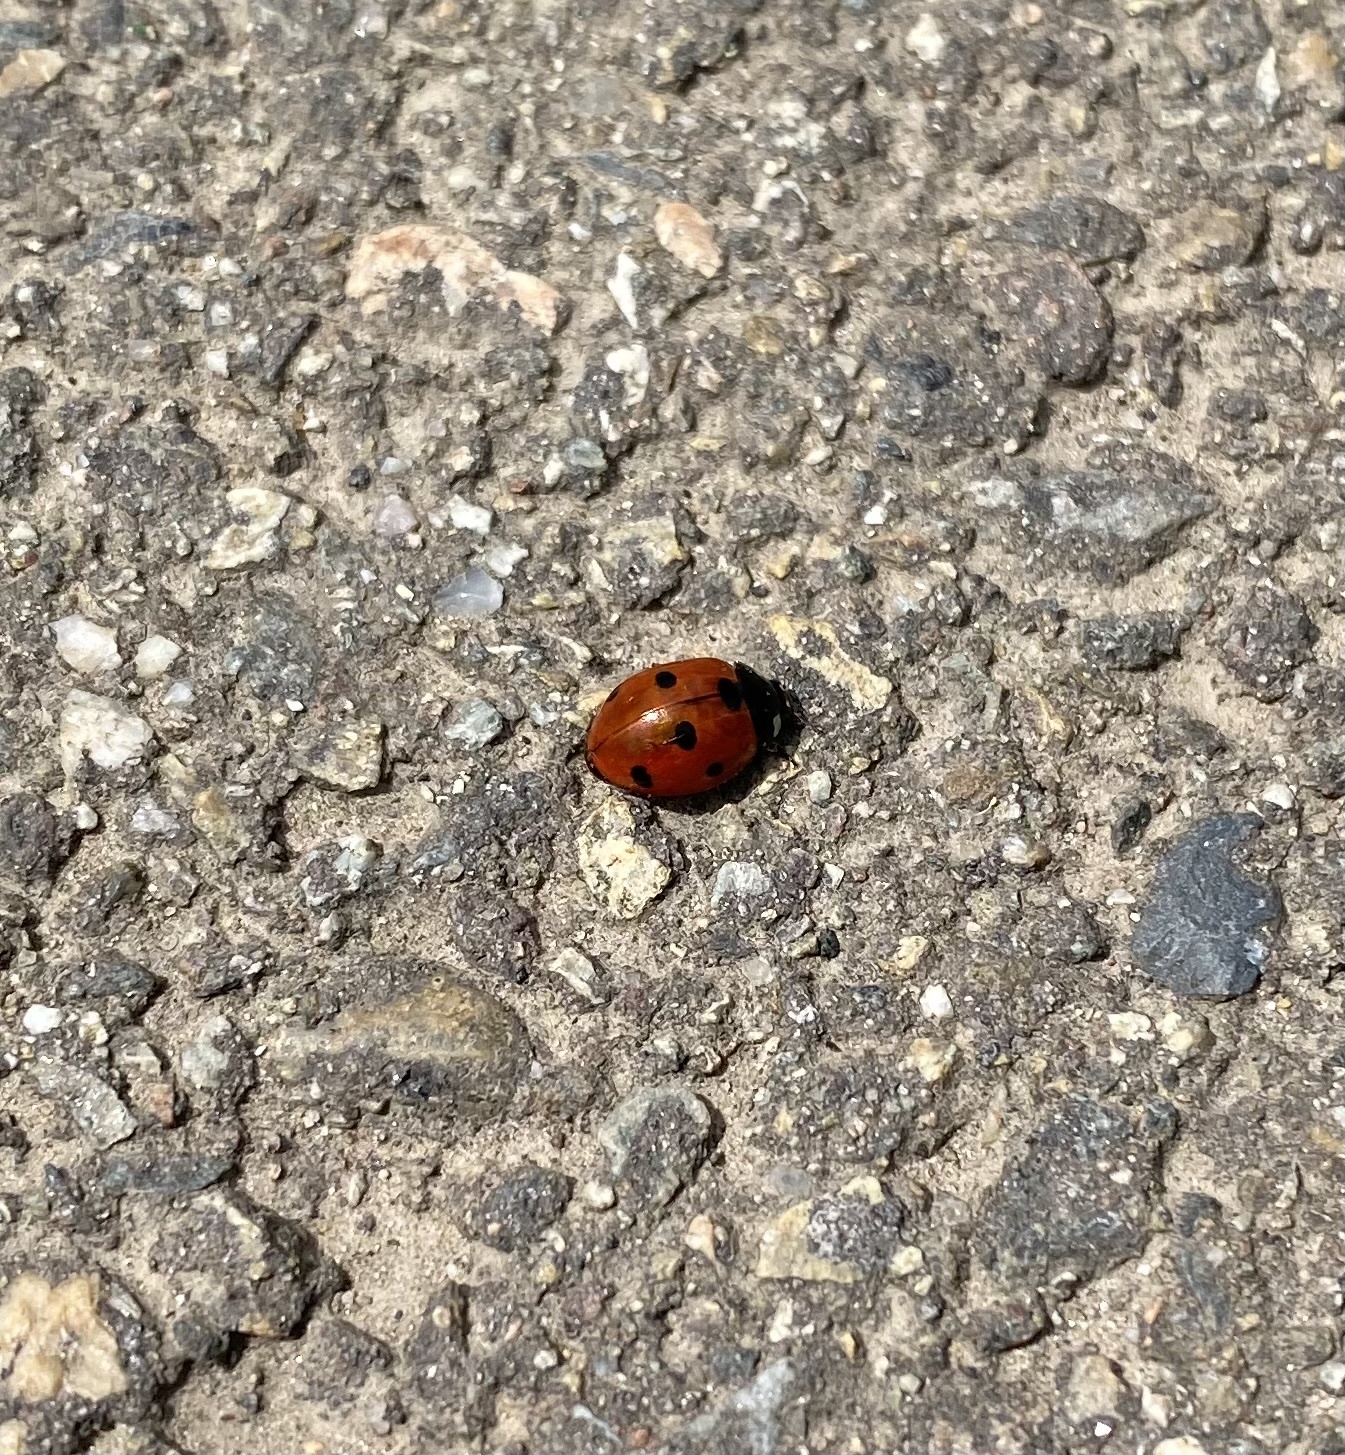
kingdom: Animalia
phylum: Arthropoda
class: Insecta
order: Coleoptera
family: Coccinellidae
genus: Coccinella
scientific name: Coccinella septempunctata
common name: Sevenspotted lady beetle
